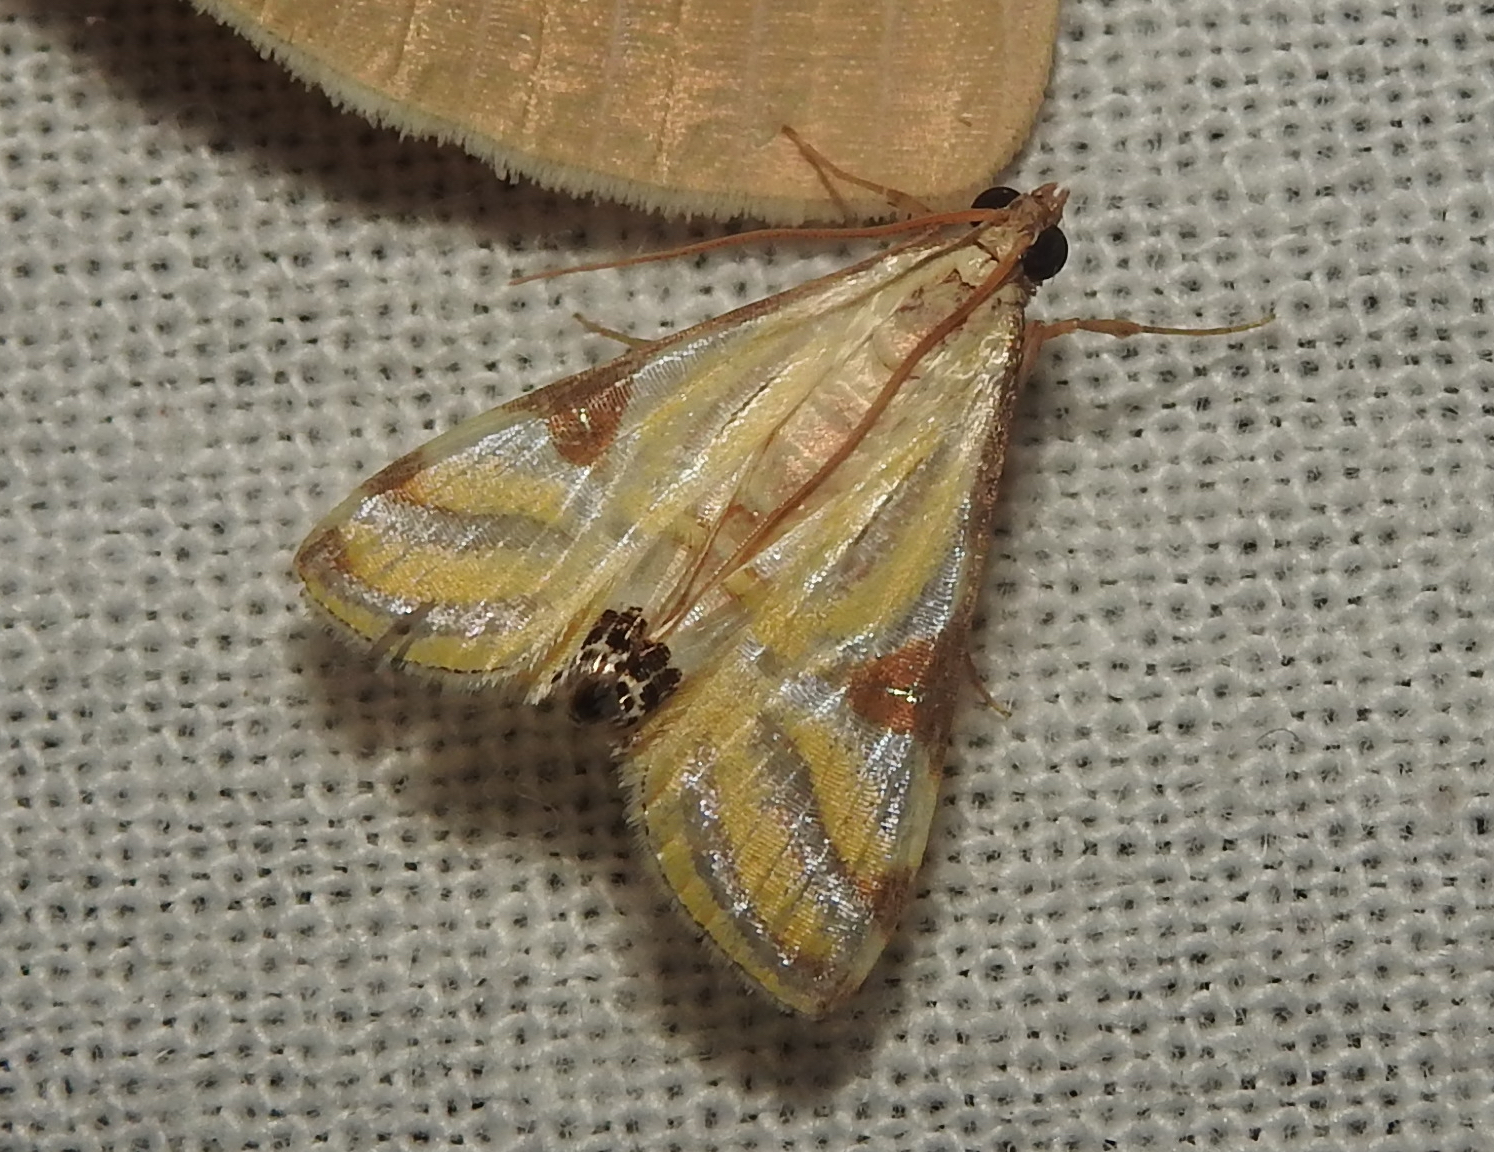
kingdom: Animalia
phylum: Arthropoda
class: Insecta
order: Lepidoptera
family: Crambidae
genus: Talanga
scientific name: Talanga sexpunctalis
